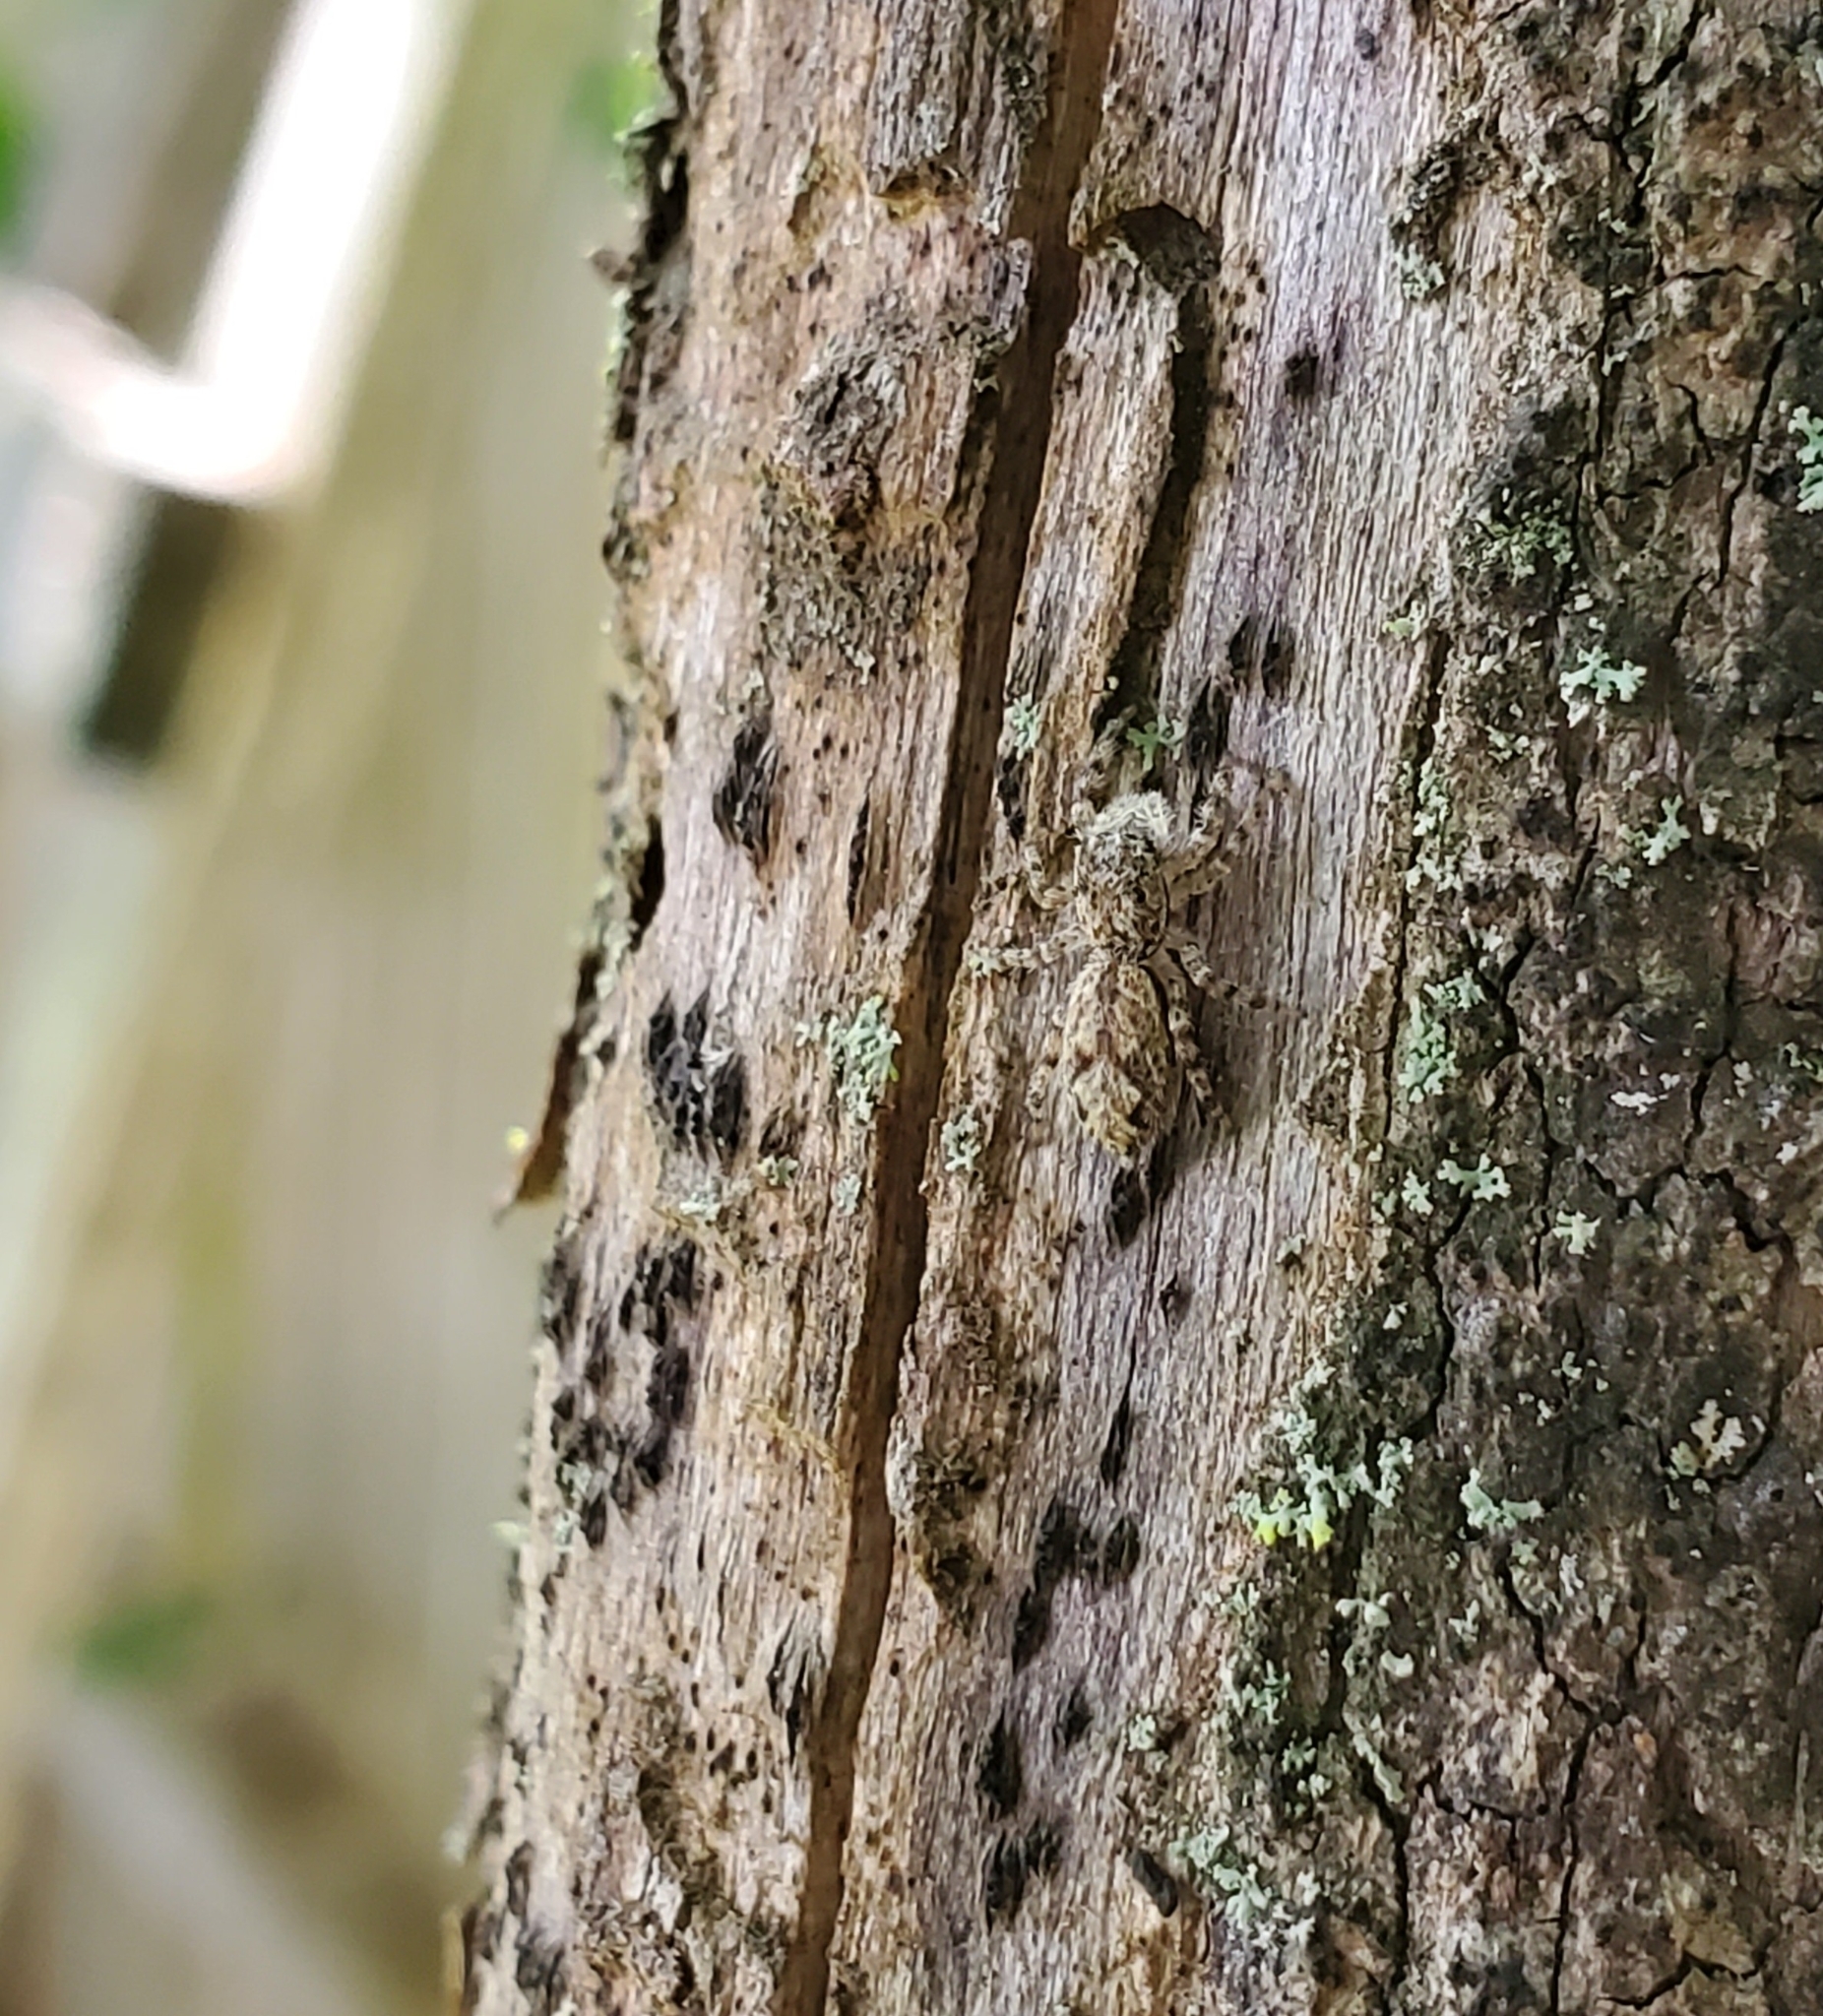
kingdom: Animalia
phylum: Arthropoda
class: Arachnida
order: Araneae
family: Salticidae
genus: Platycryptus
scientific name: Platycryptus undatus
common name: Tan jumping spider
